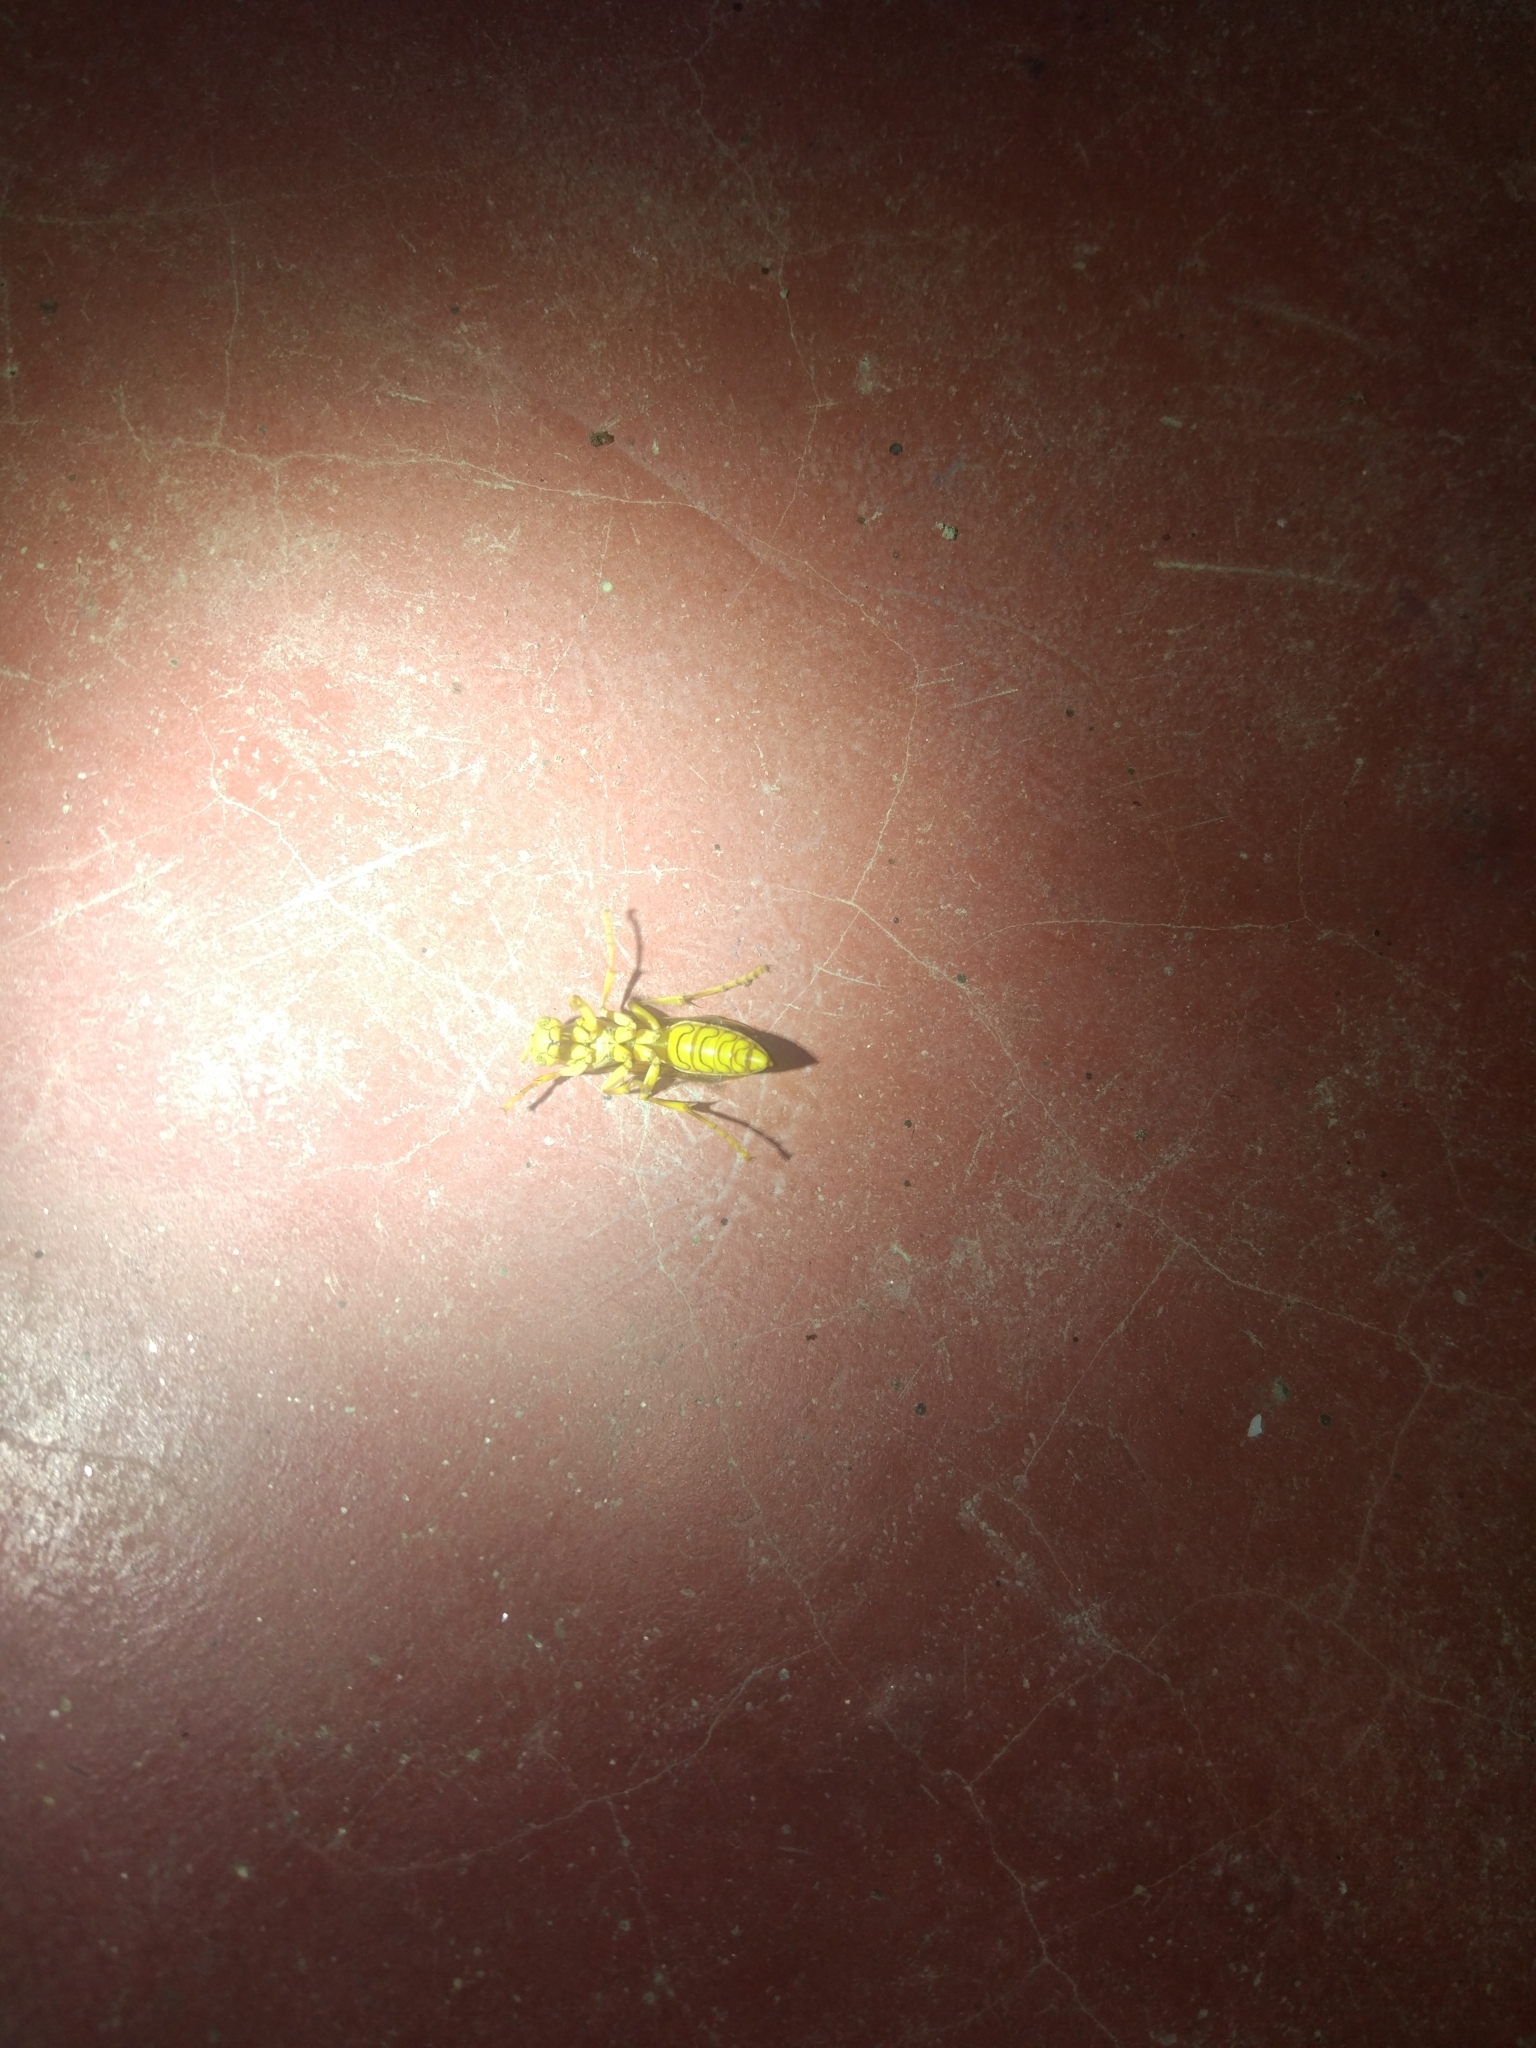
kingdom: Animalia
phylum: Arthropoda
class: Insecta
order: Hymenoptera
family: Eumenidae
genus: Polistes
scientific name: Polistes olivaceus
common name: Paper wasp
